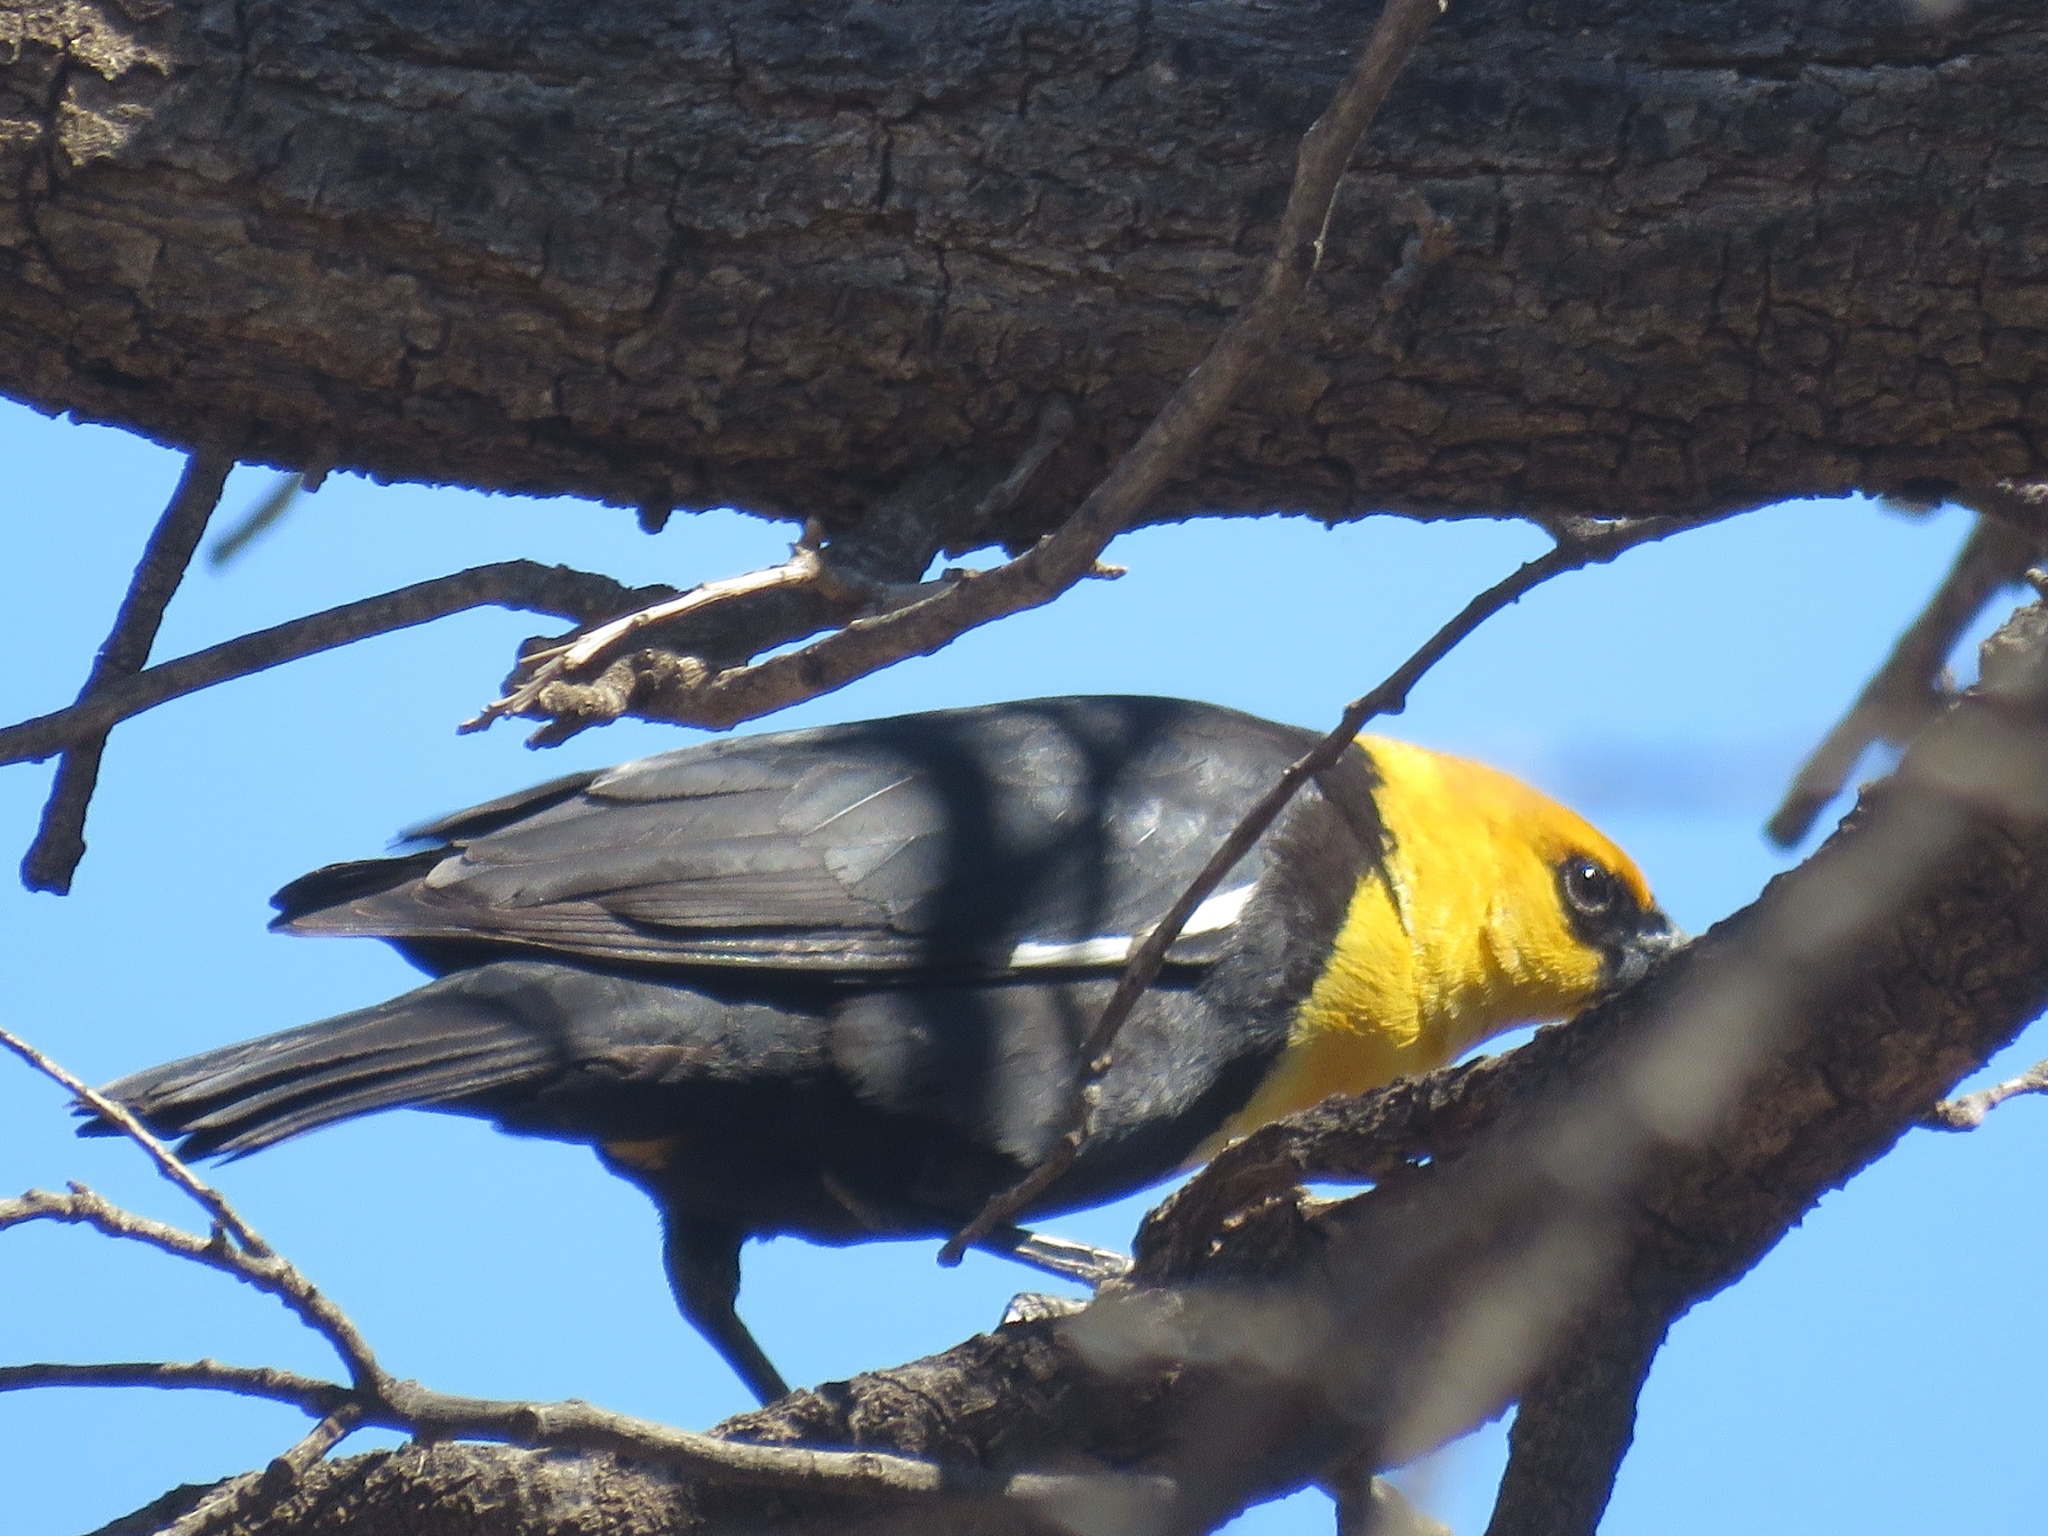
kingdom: Animalia
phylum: Chordata
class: Aves
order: Passeriformes
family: Icteridae
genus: Xanthocephalus
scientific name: Xanthocephalus xanthocephalus
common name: Yellow-headed blackbird
